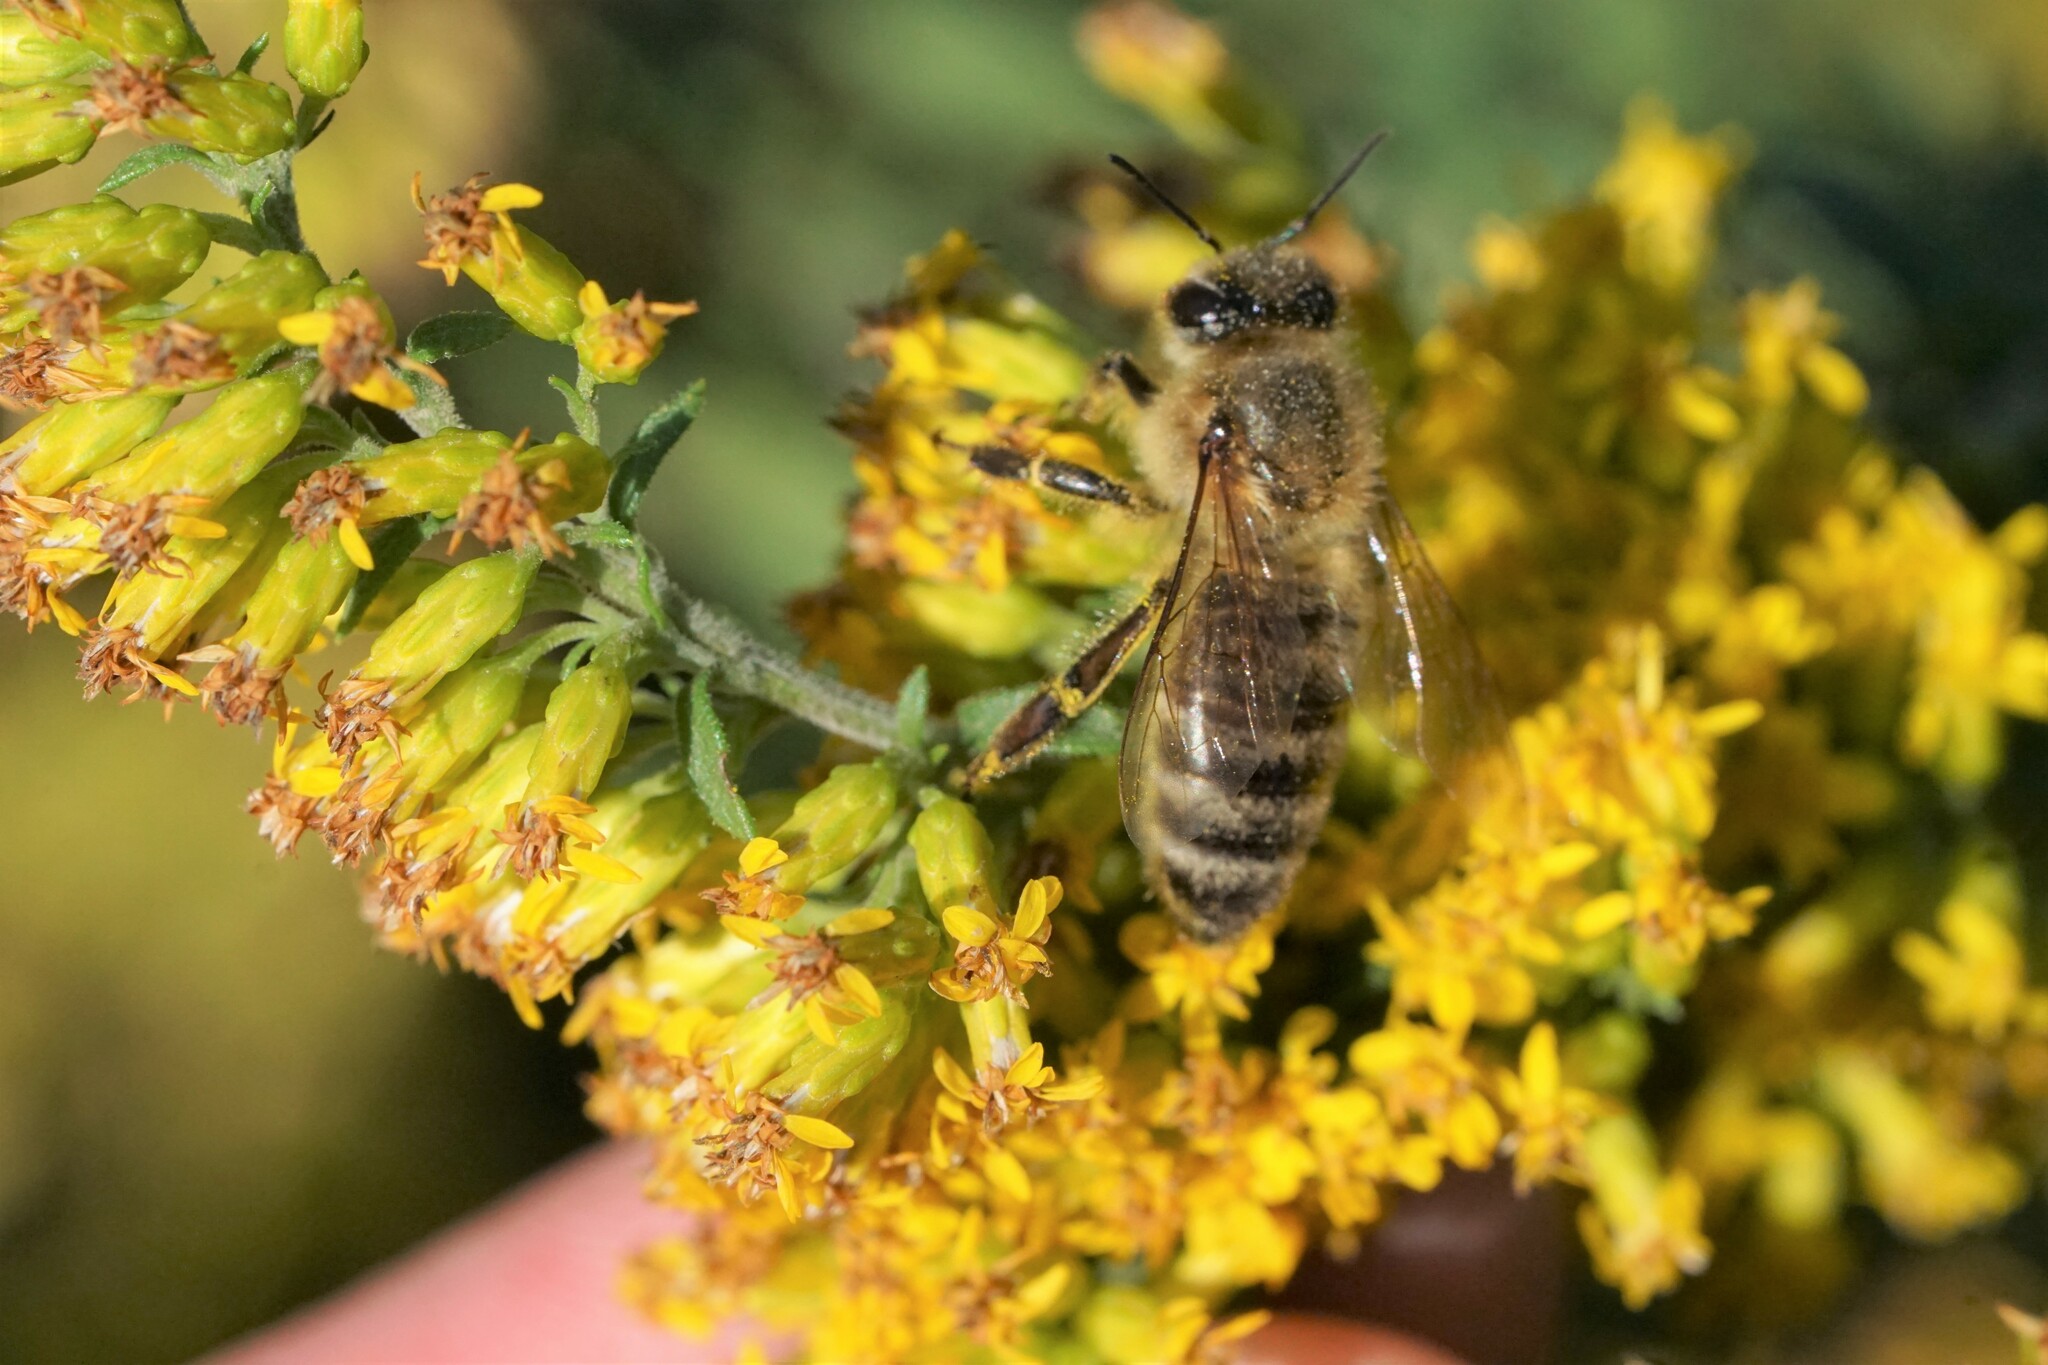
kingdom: Animalia
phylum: Arthropoda
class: Insecta
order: Hymenoptera
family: Apidae
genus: Apis
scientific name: Apis mellifera
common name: Honey bee
